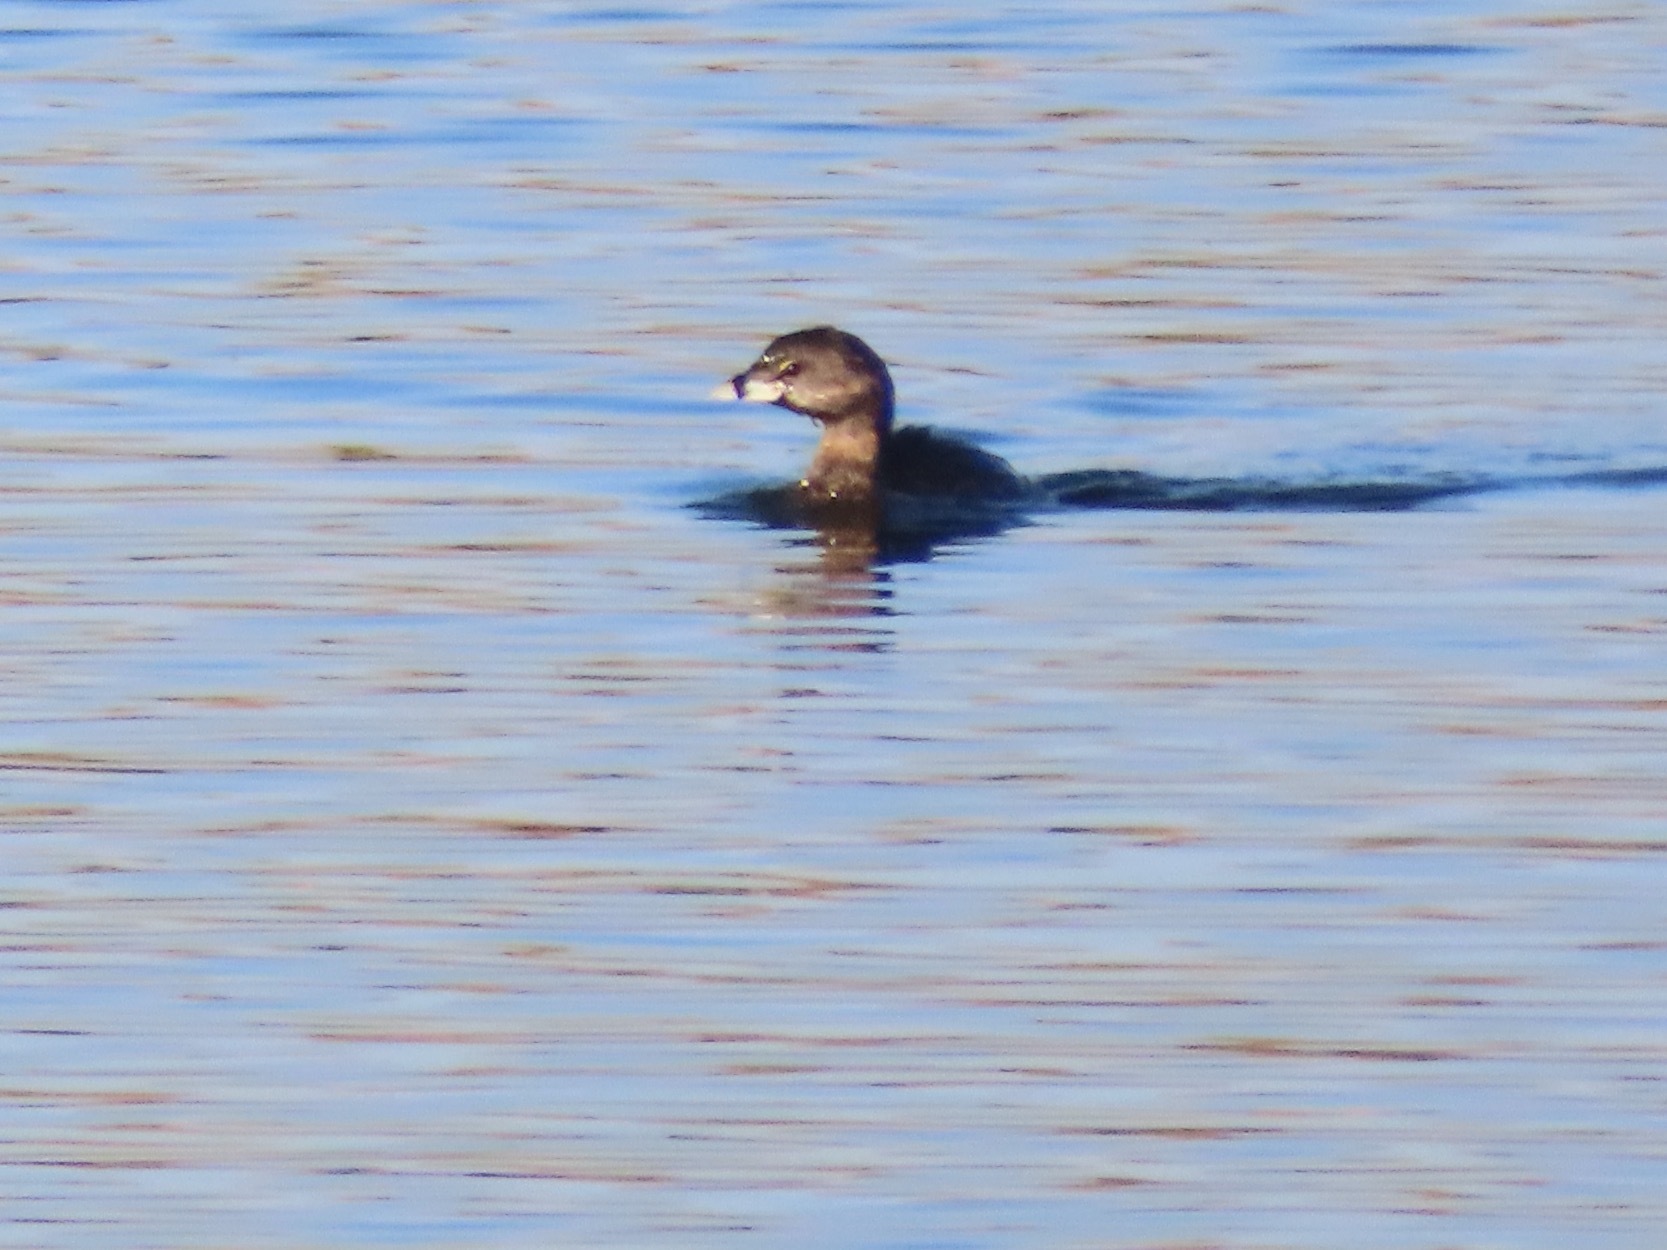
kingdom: Animalia
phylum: Chordata
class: Aves
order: Podicipediformes
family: Podicipedidae
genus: Podilymbus
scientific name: Podilymbus podiceps
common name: Pied-billed grebe
